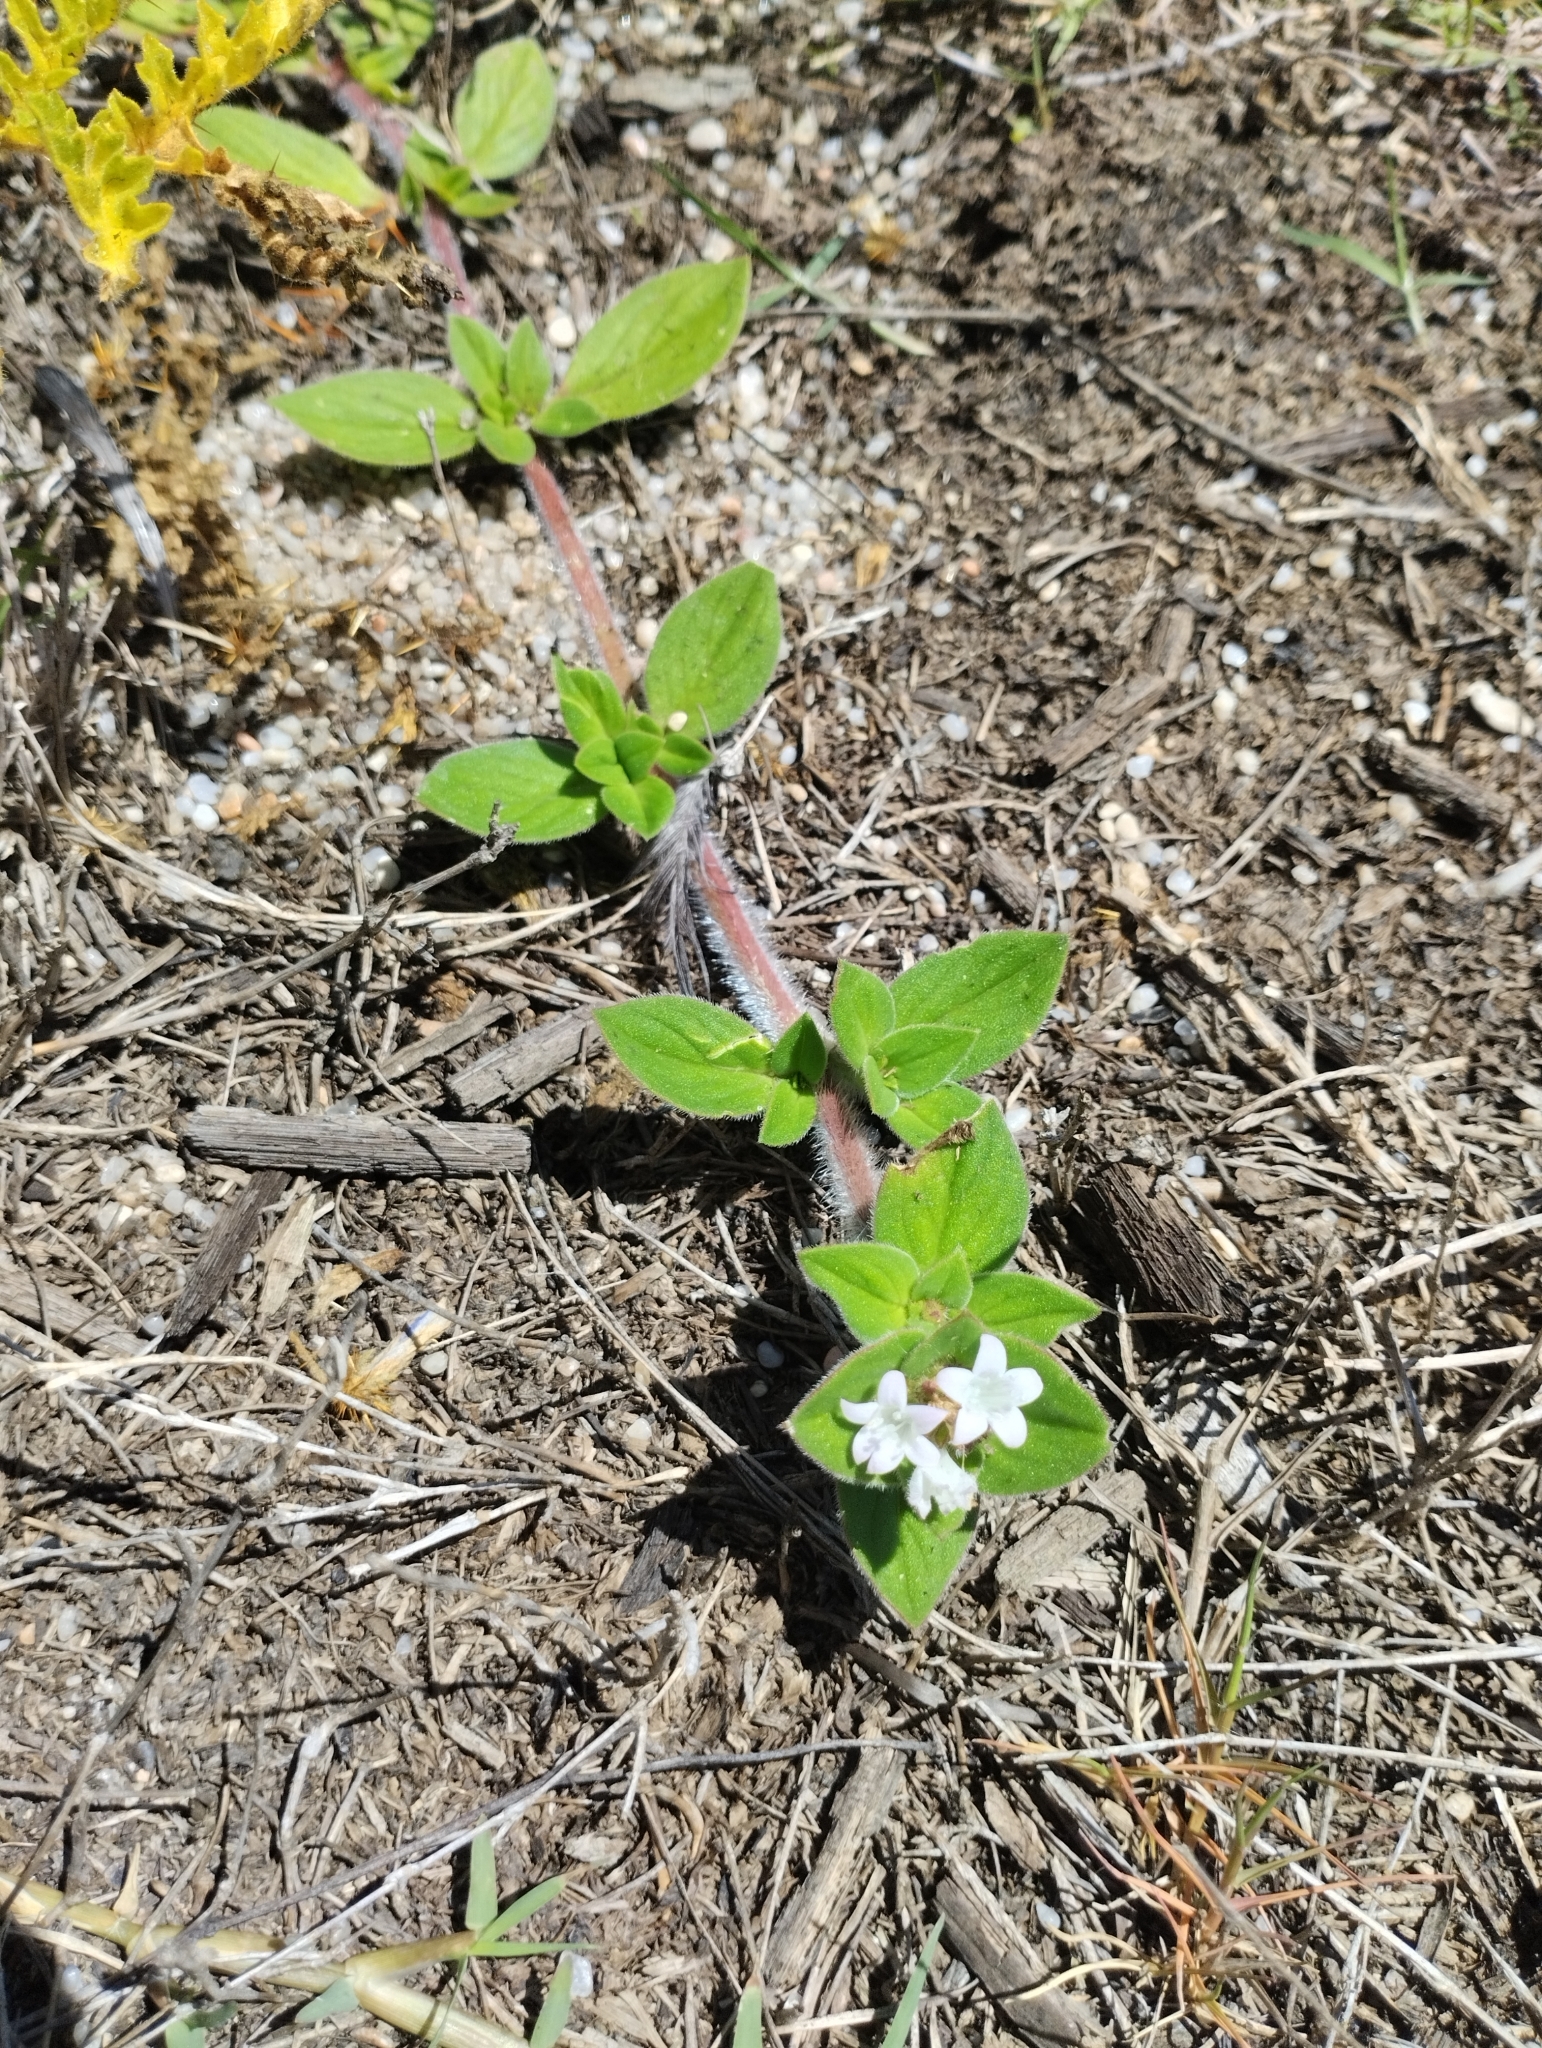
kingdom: Plantae
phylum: Tracheophyta
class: Magnoliopsida
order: Gentianales
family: Rubiaceae
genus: Richardia
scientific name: Richardia brasiliensis
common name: Tropical mexican clover
